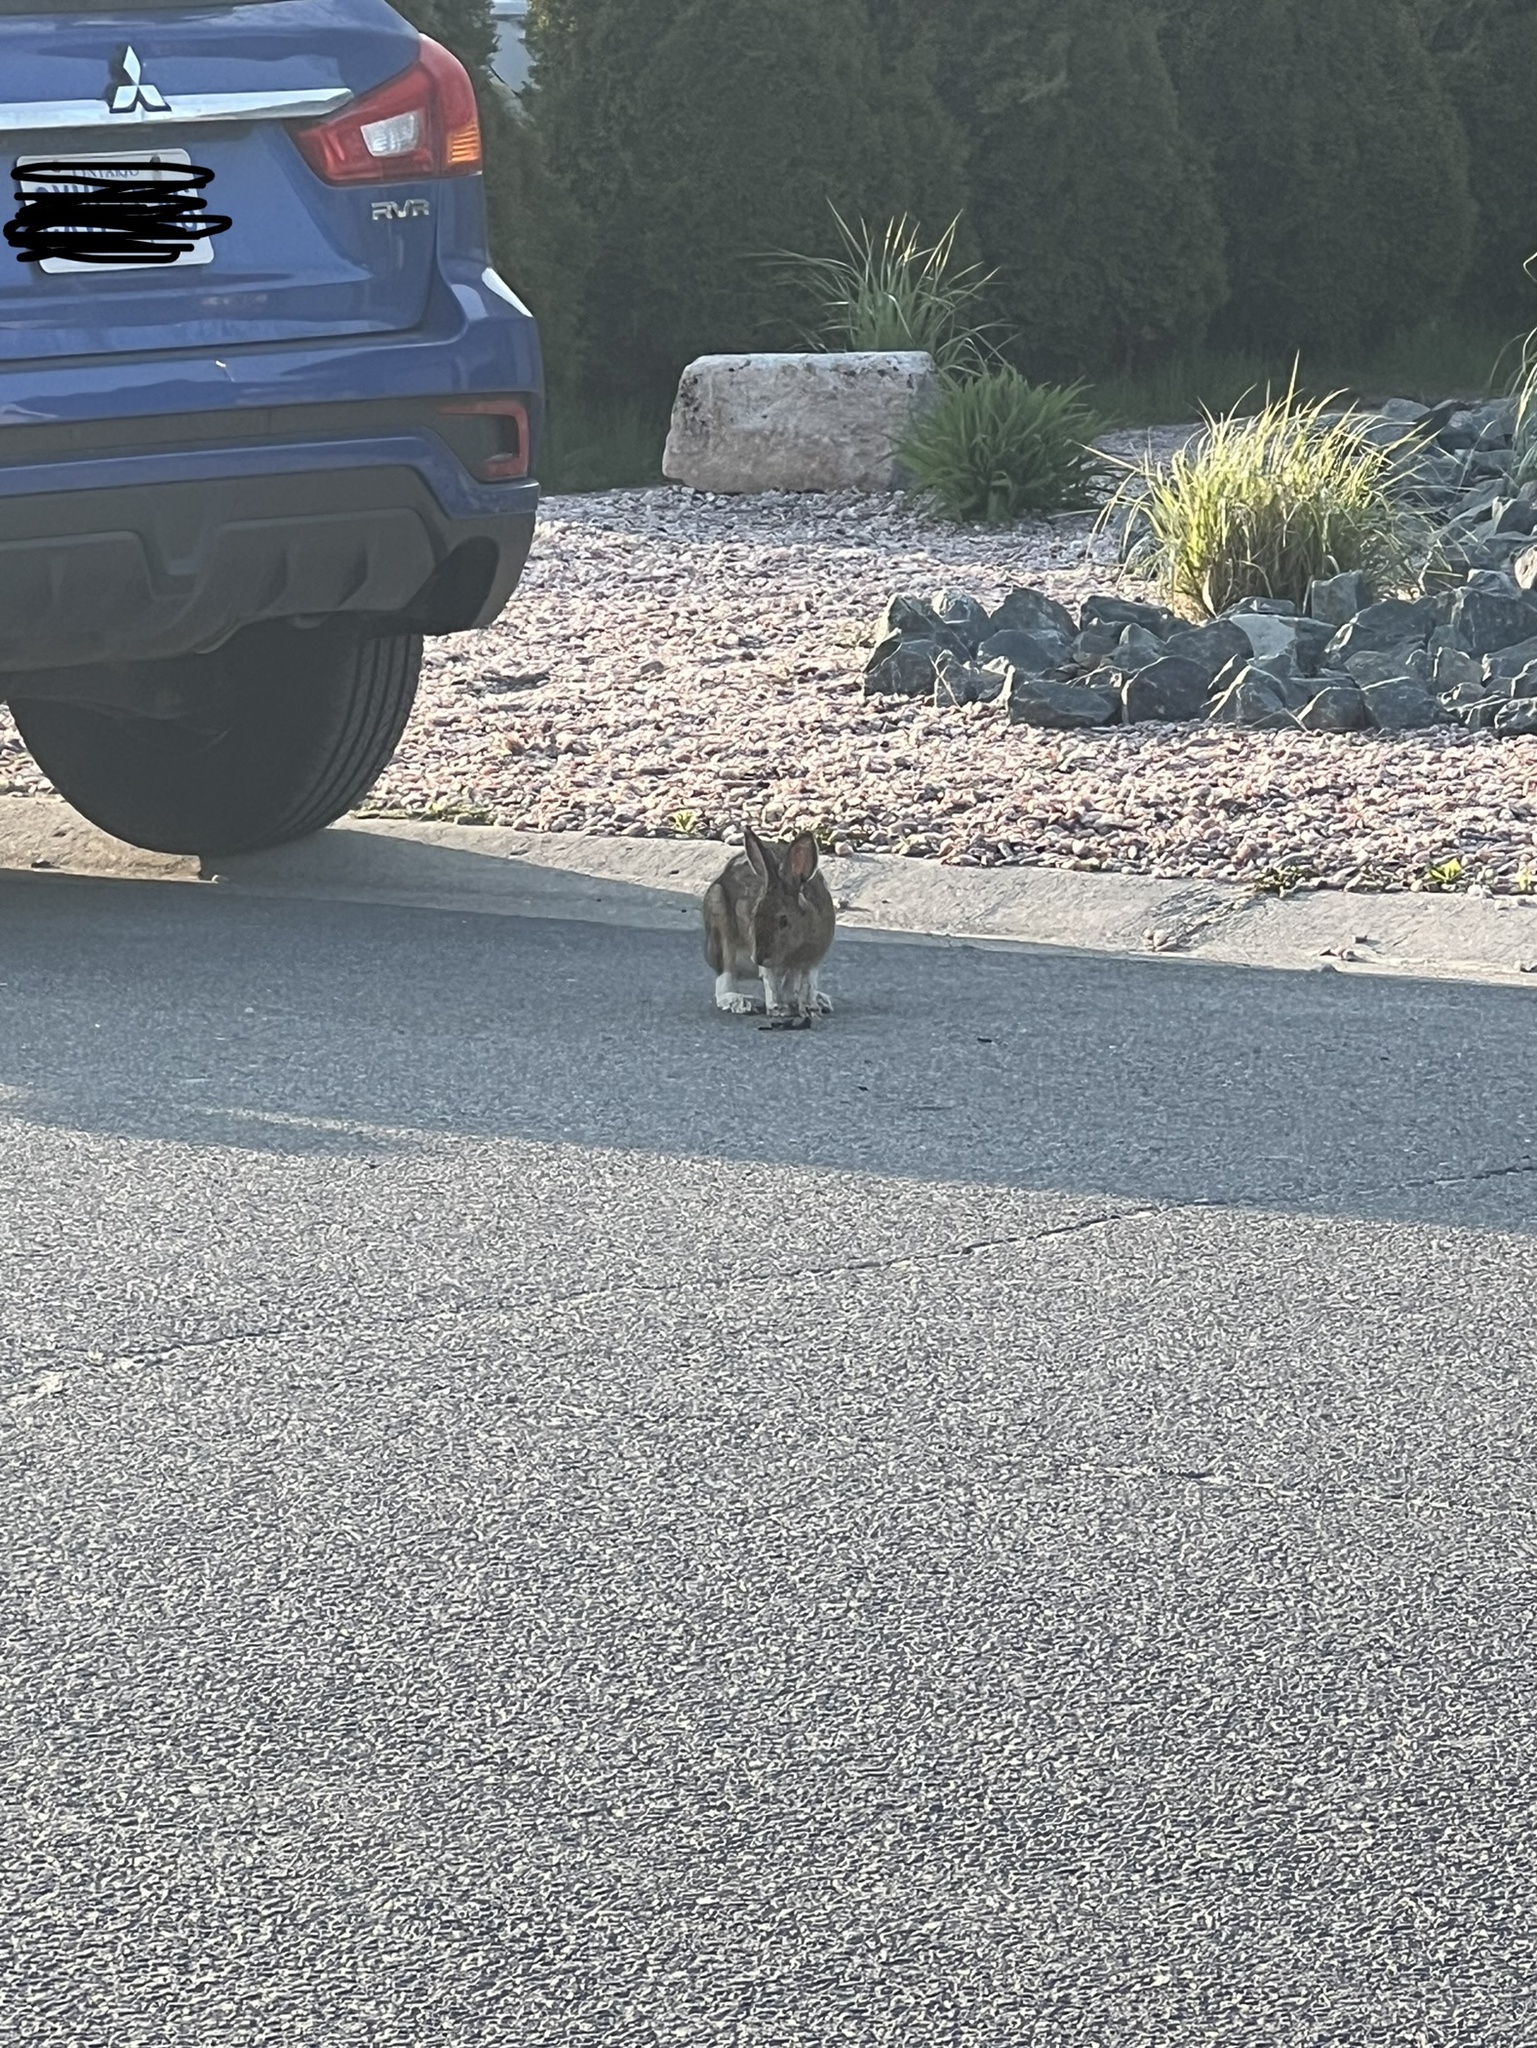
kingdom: Animalia
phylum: Chordata
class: Mammalia
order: Lagomorpha
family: Leporidae
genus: Lepus
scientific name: Lepus americanus
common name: Snowshoe hare
